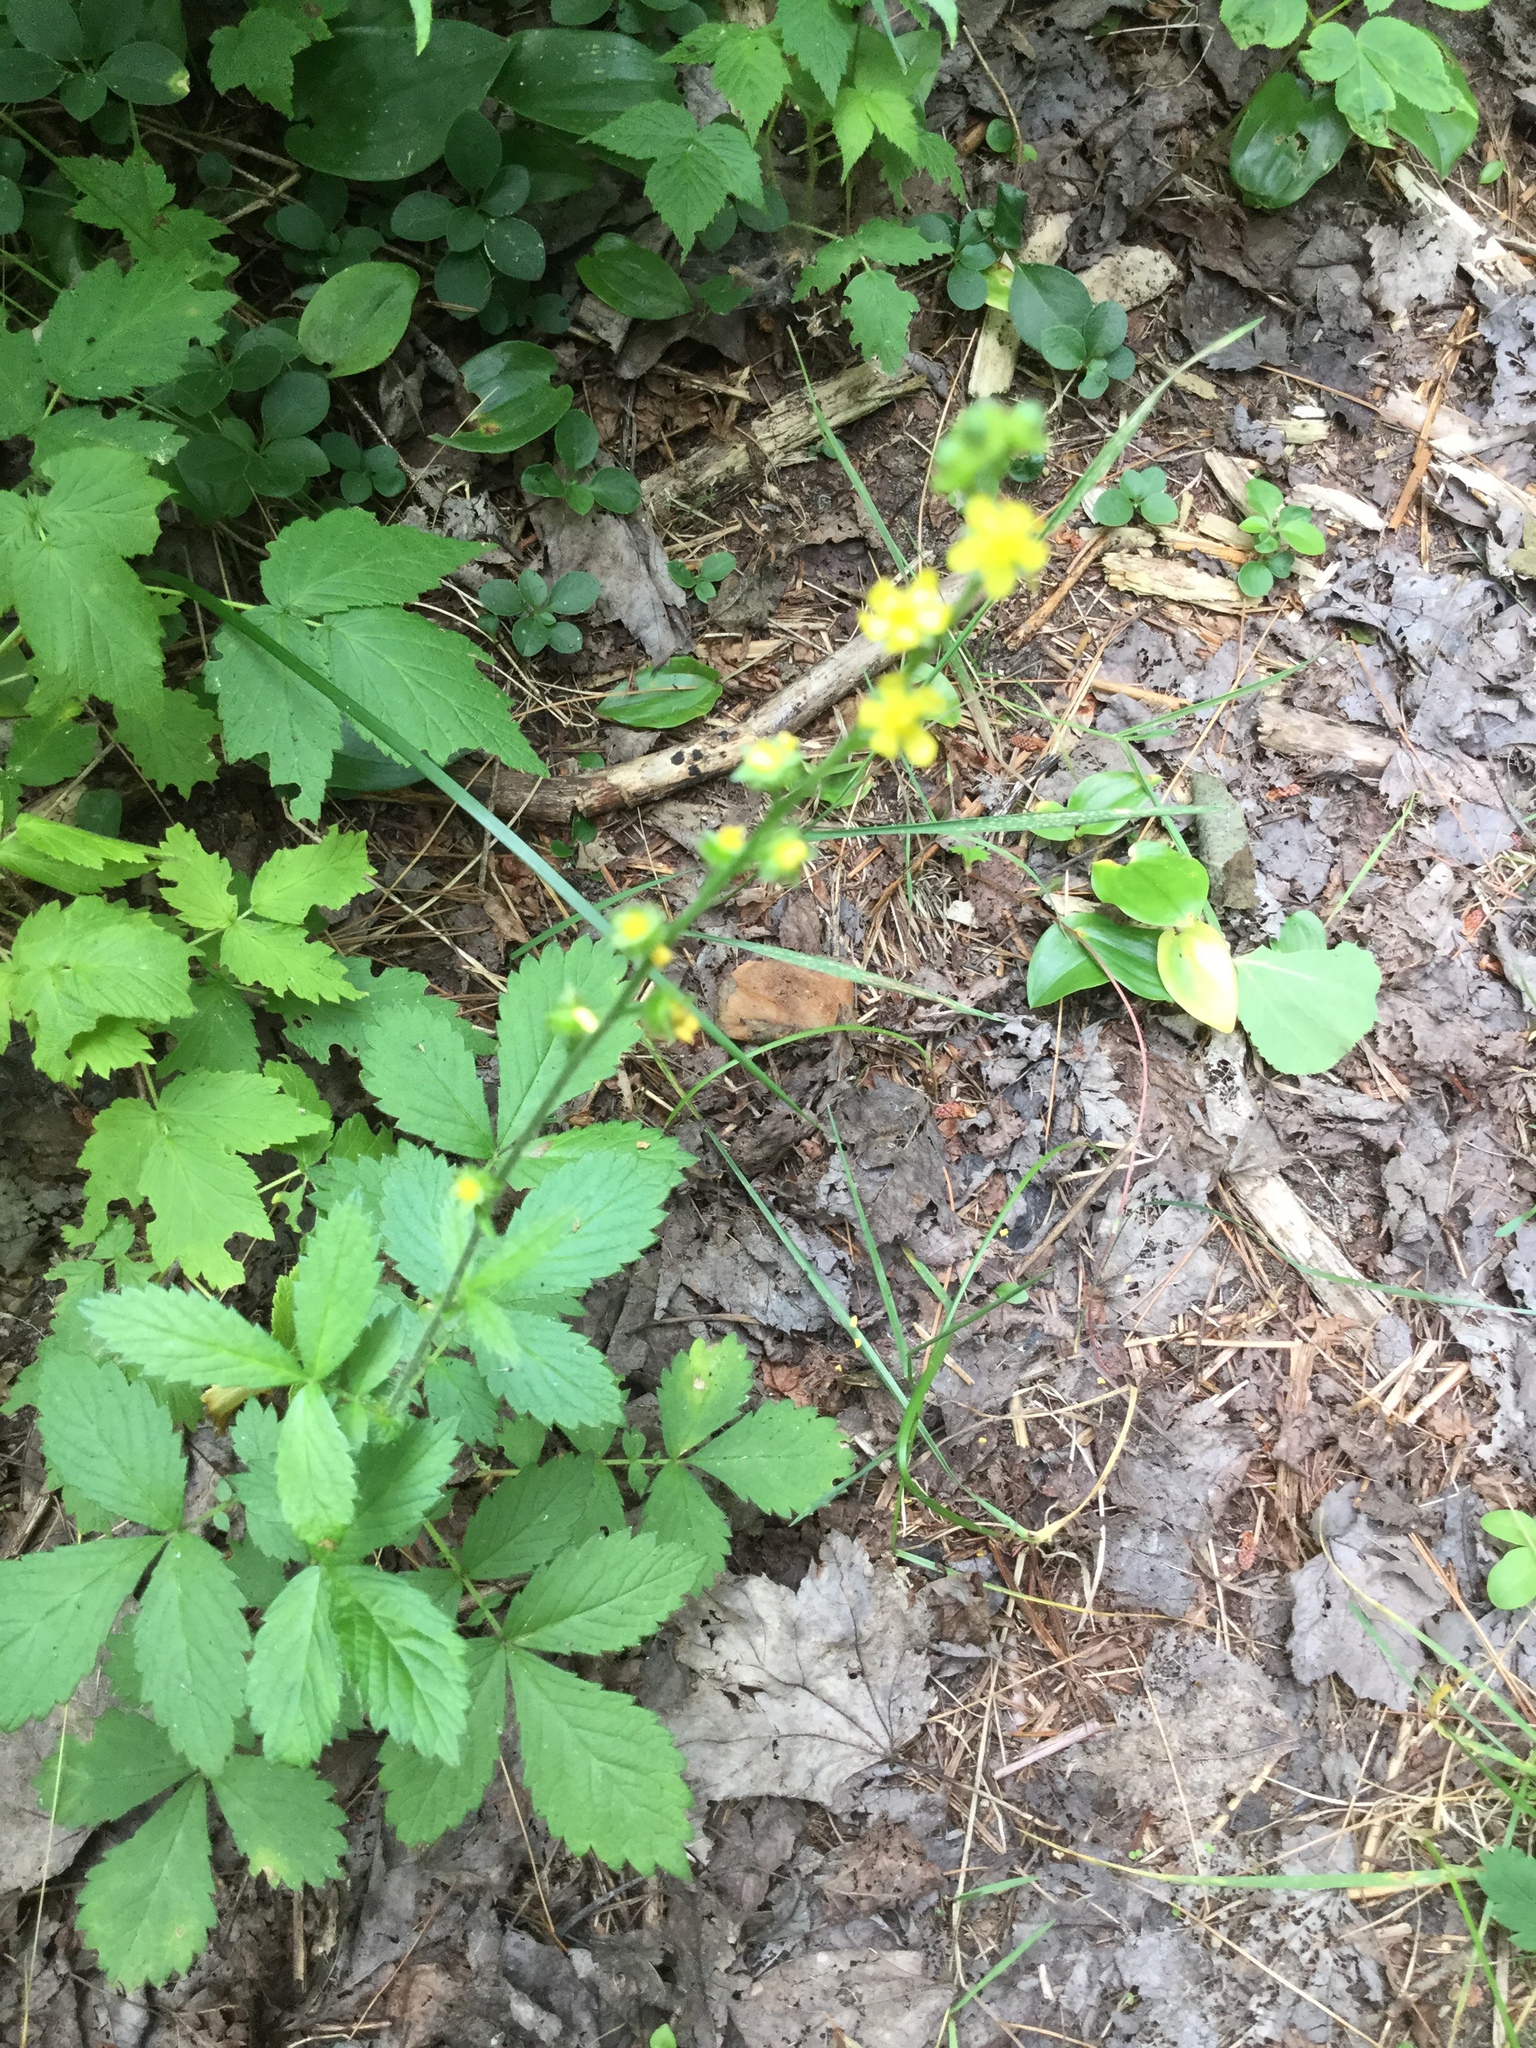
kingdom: Plantae
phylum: Tracheophyta
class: Magnoliopsida
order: Rosales
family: Rosaceae
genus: Agrimonia
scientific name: Agrimonia gryposepala
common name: Common agrimony
